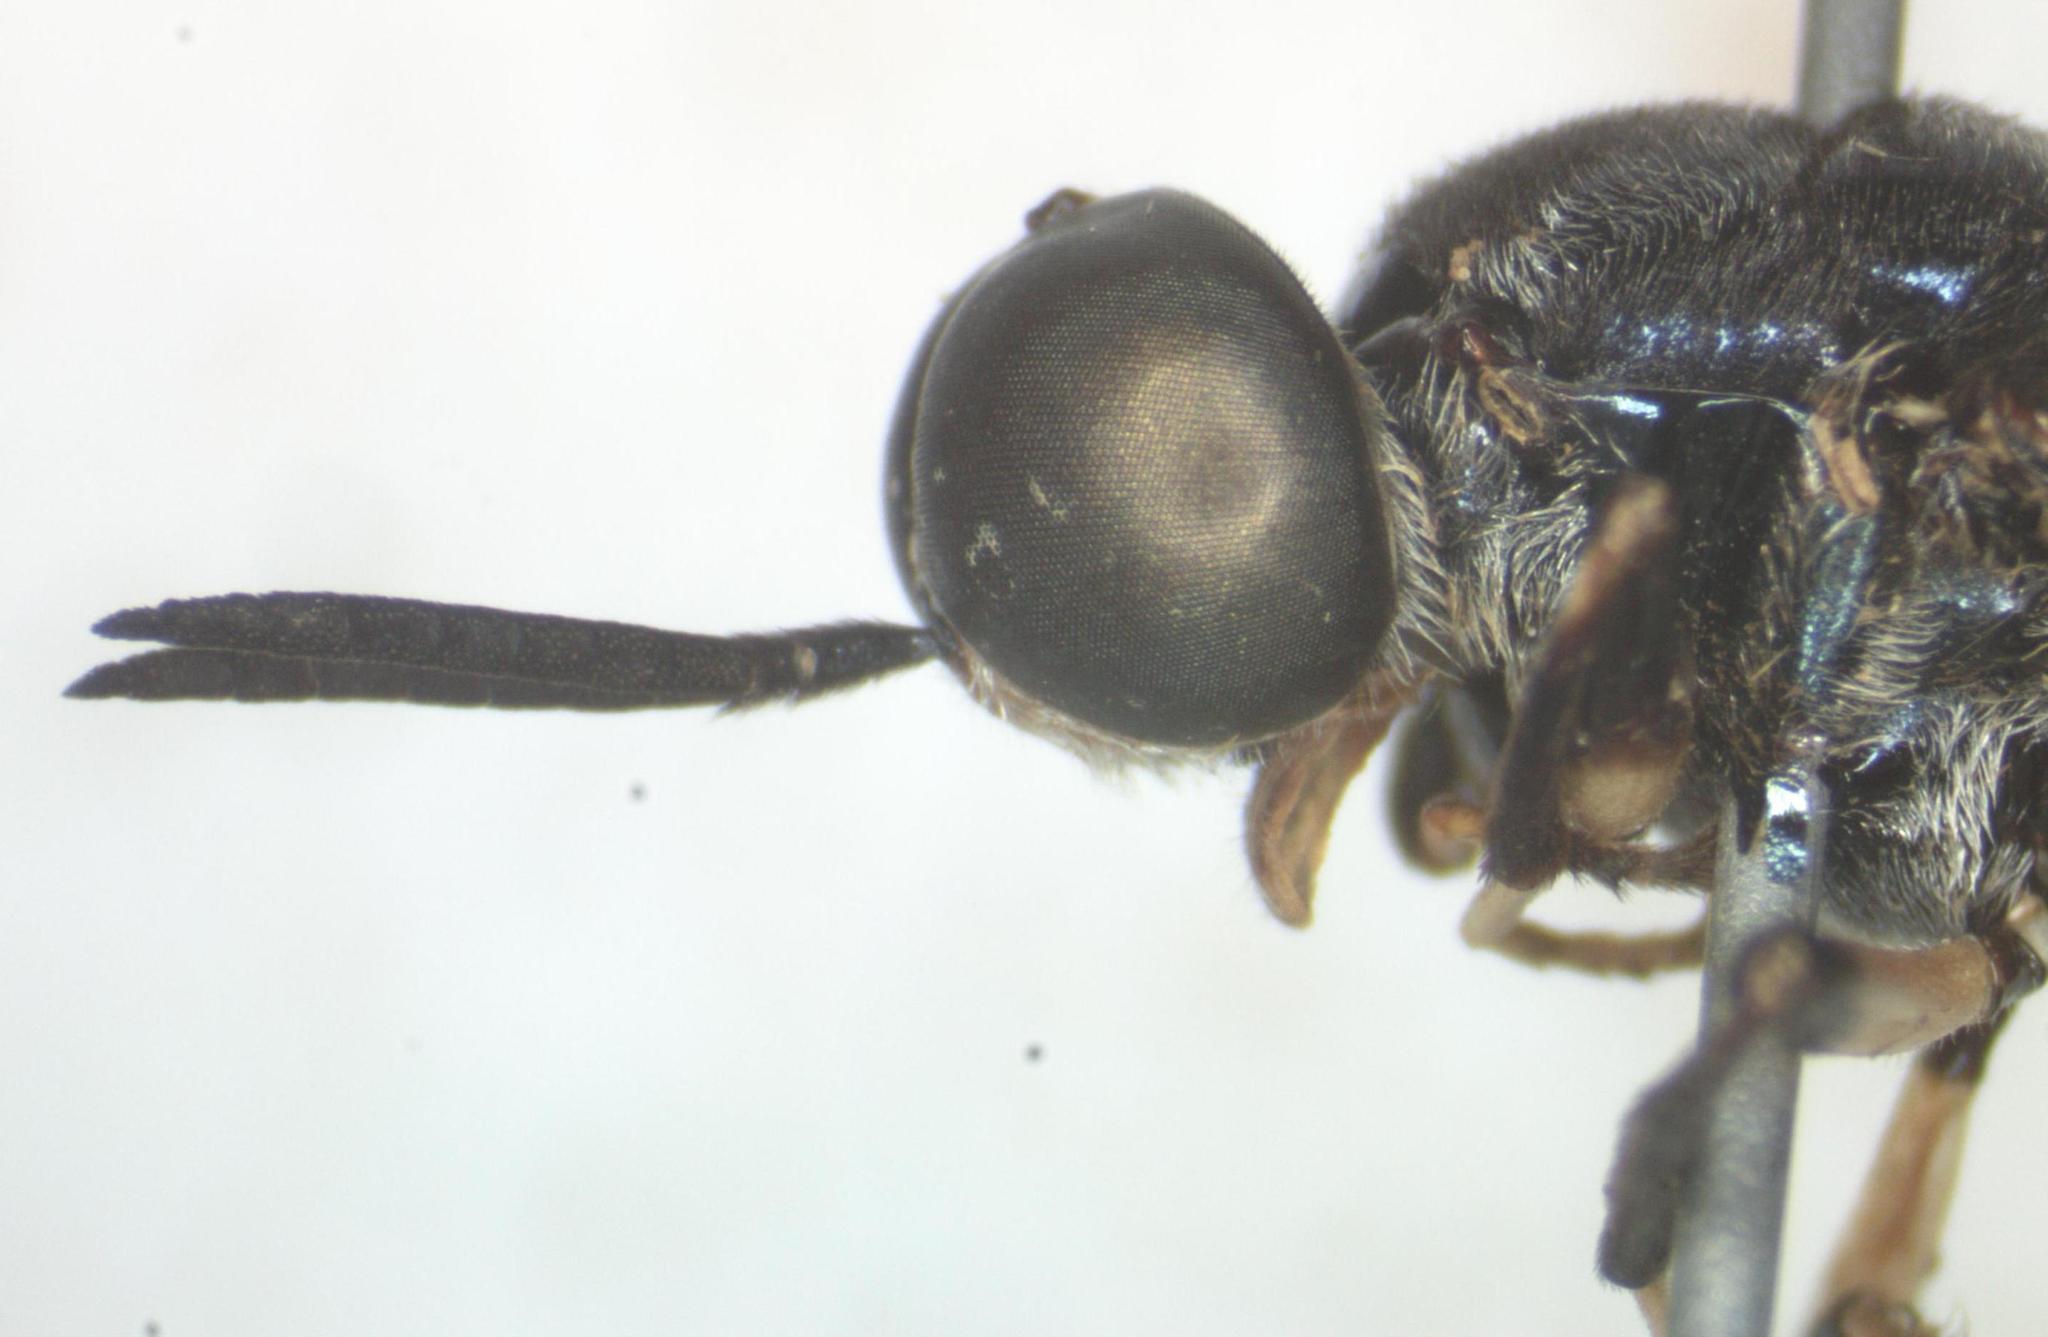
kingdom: Animalia
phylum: Arthropoda
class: Insecta
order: Diptera
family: Stratiomyidae
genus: Cyphomyia
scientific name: Cyphomyia varipes
